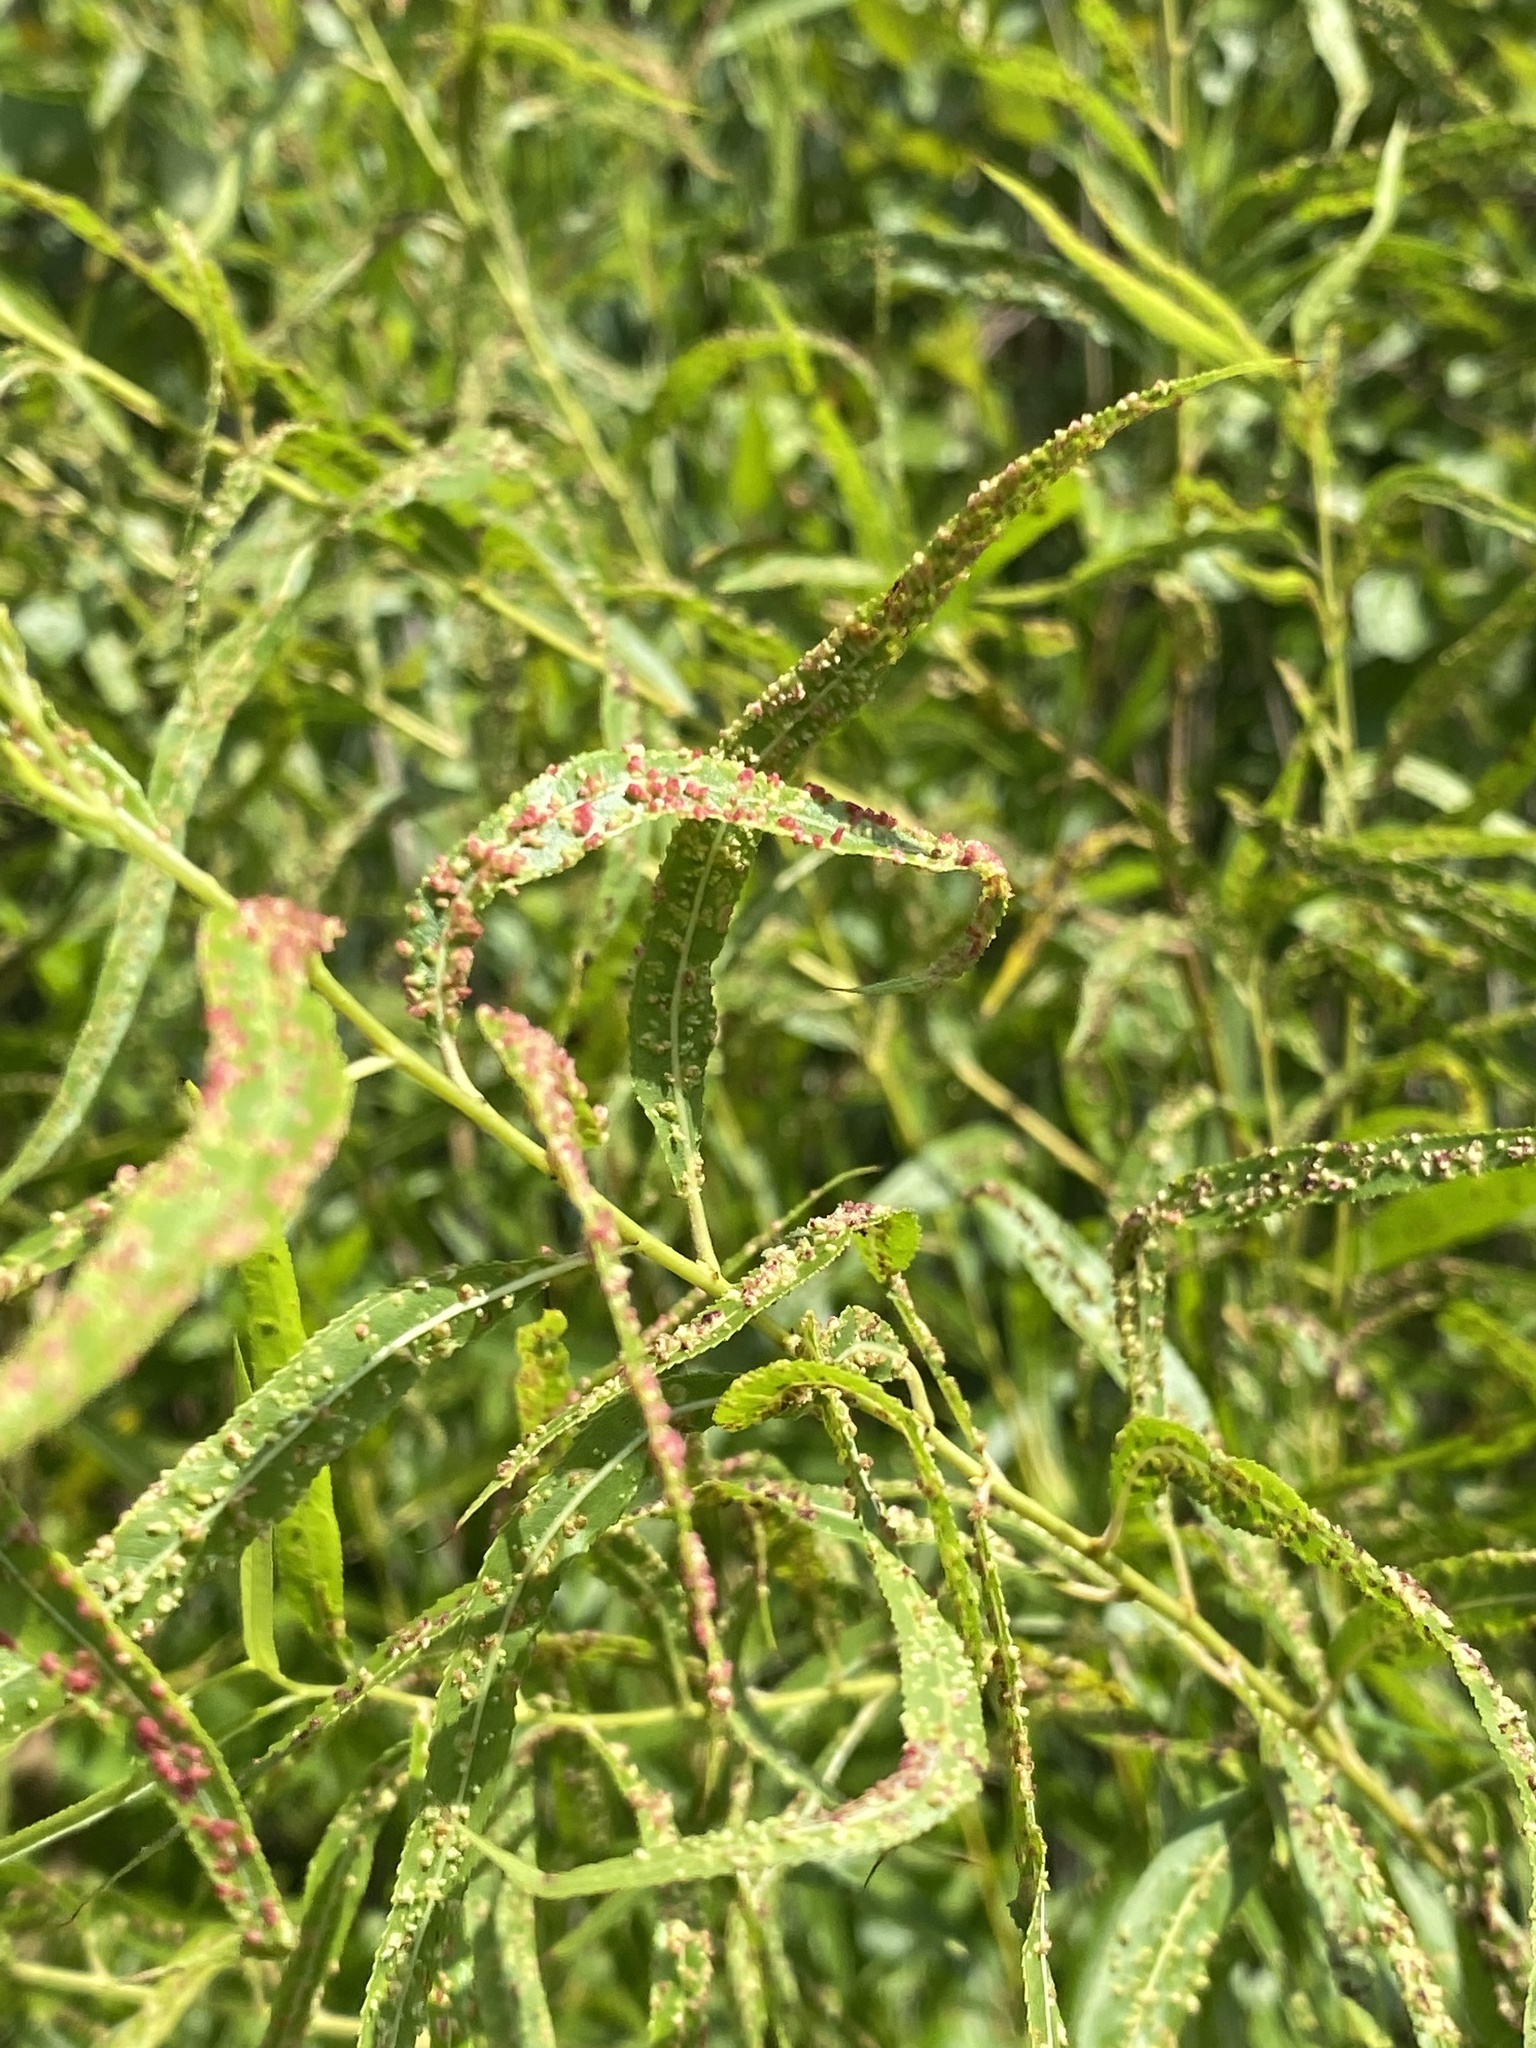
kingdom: Animalia
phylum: Arthropoda
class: Arachnida
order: Trombidiformes
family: Eriophyidae
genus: Aculus
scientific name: Aculus tetanothrix
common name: Willow bead gall mite
